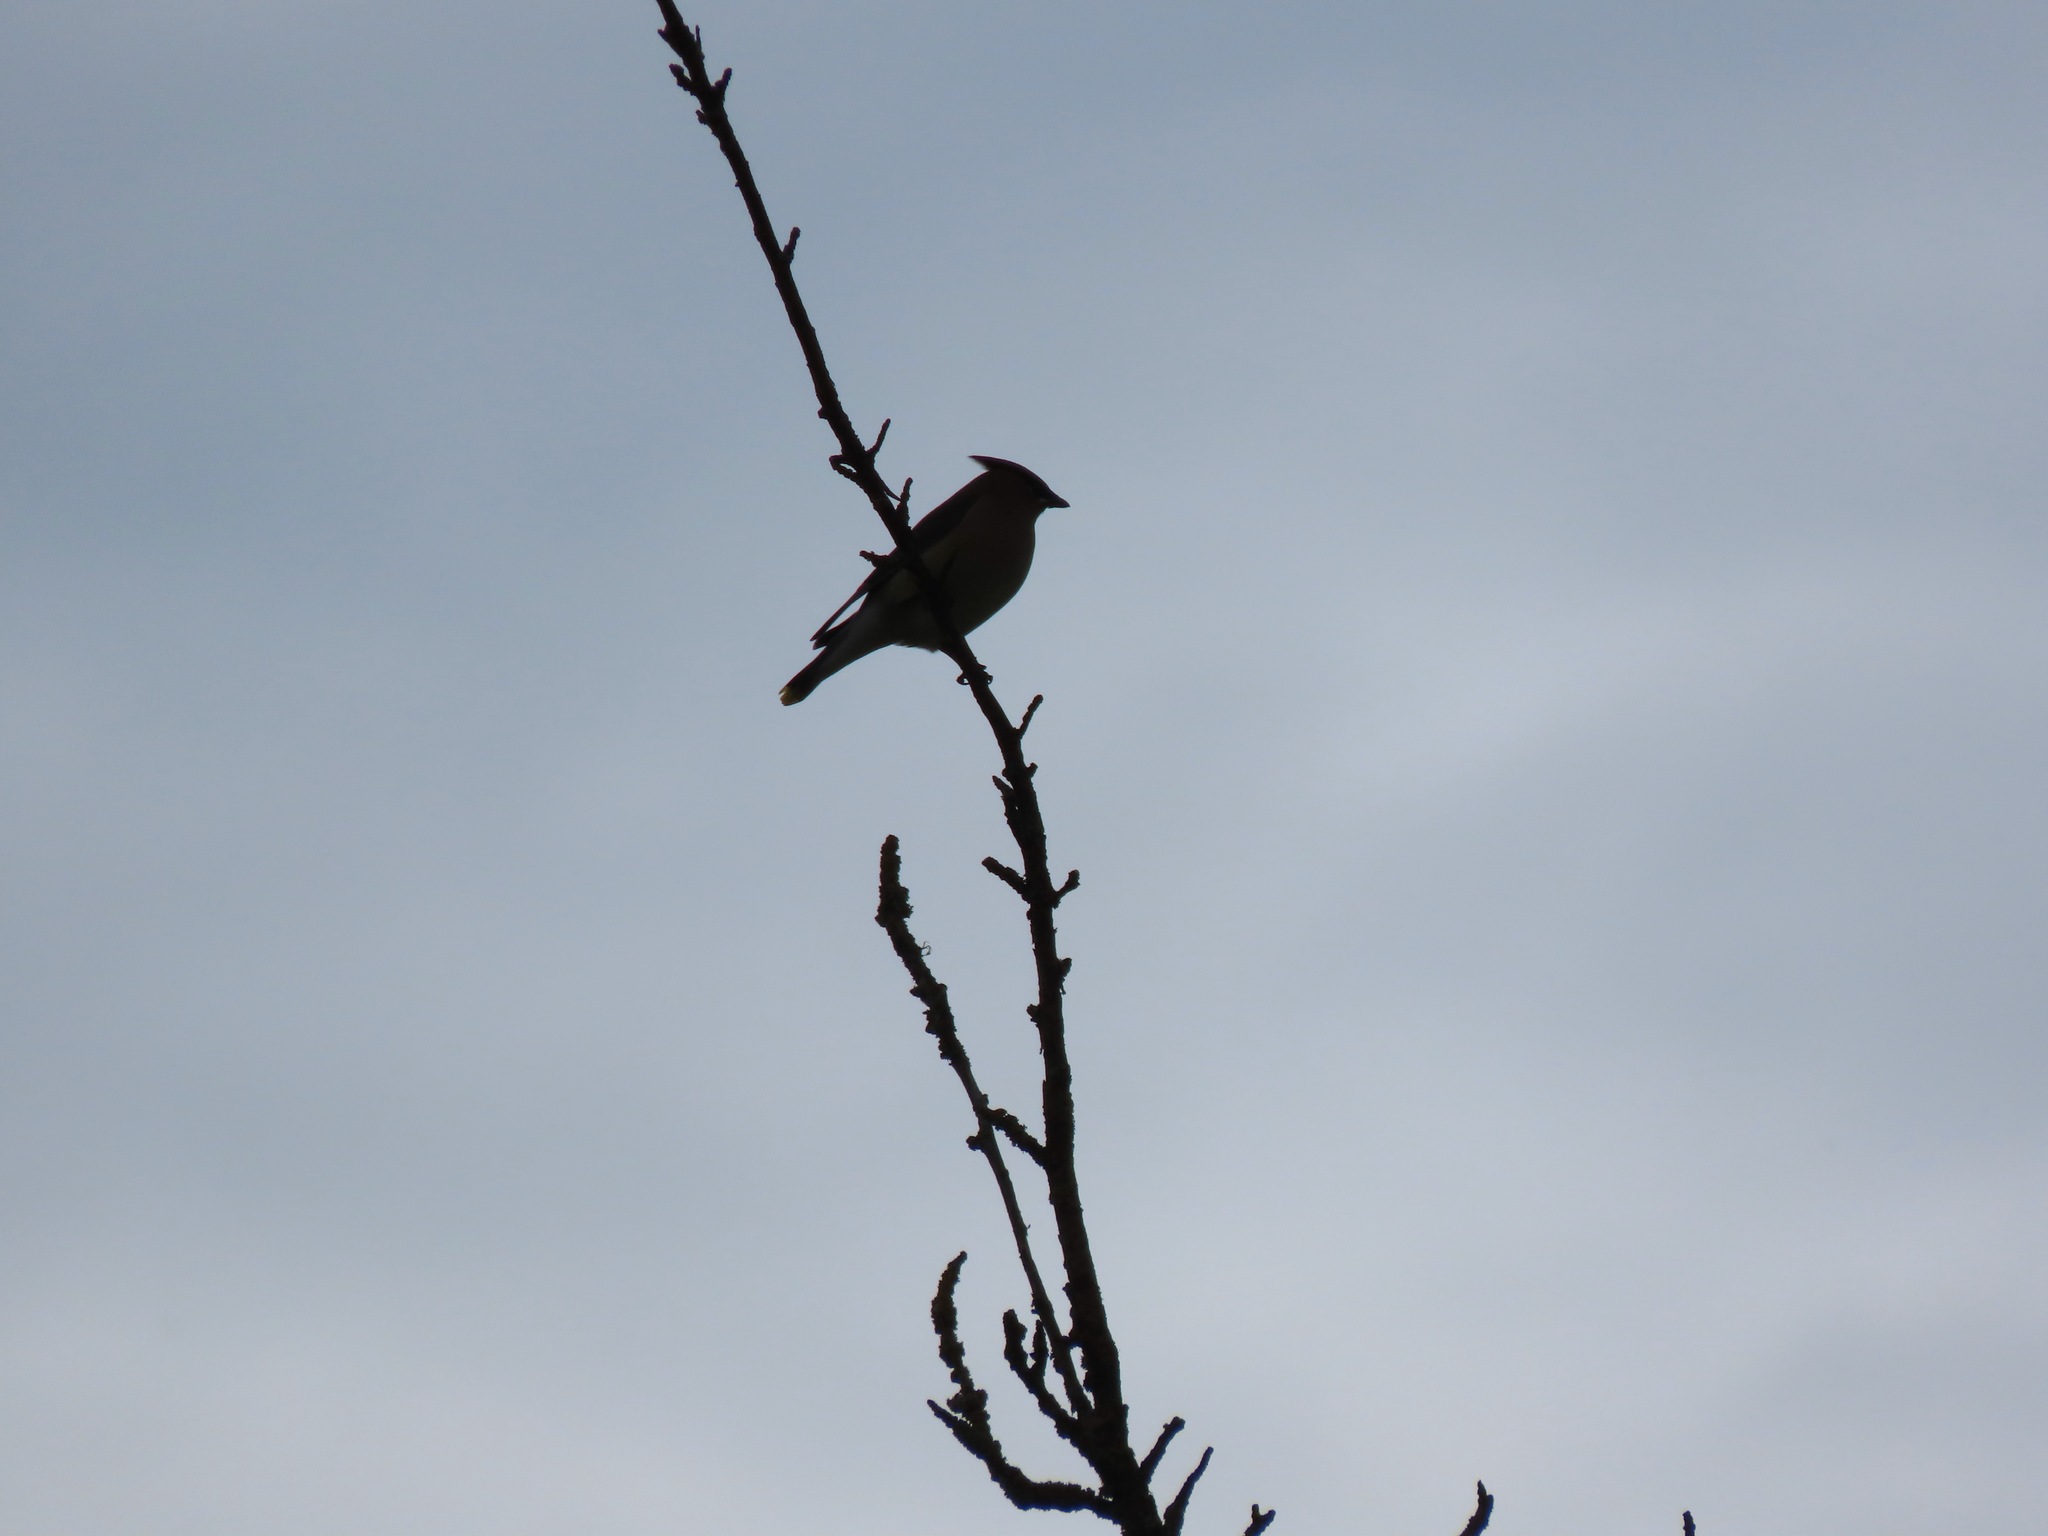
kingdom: Animalia
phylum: Chordata
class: Aves
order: Passeriformes
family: Bombycillidae
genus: Bombycilla
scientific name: Bombycilla cedrorum
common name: Cedar waxwing
